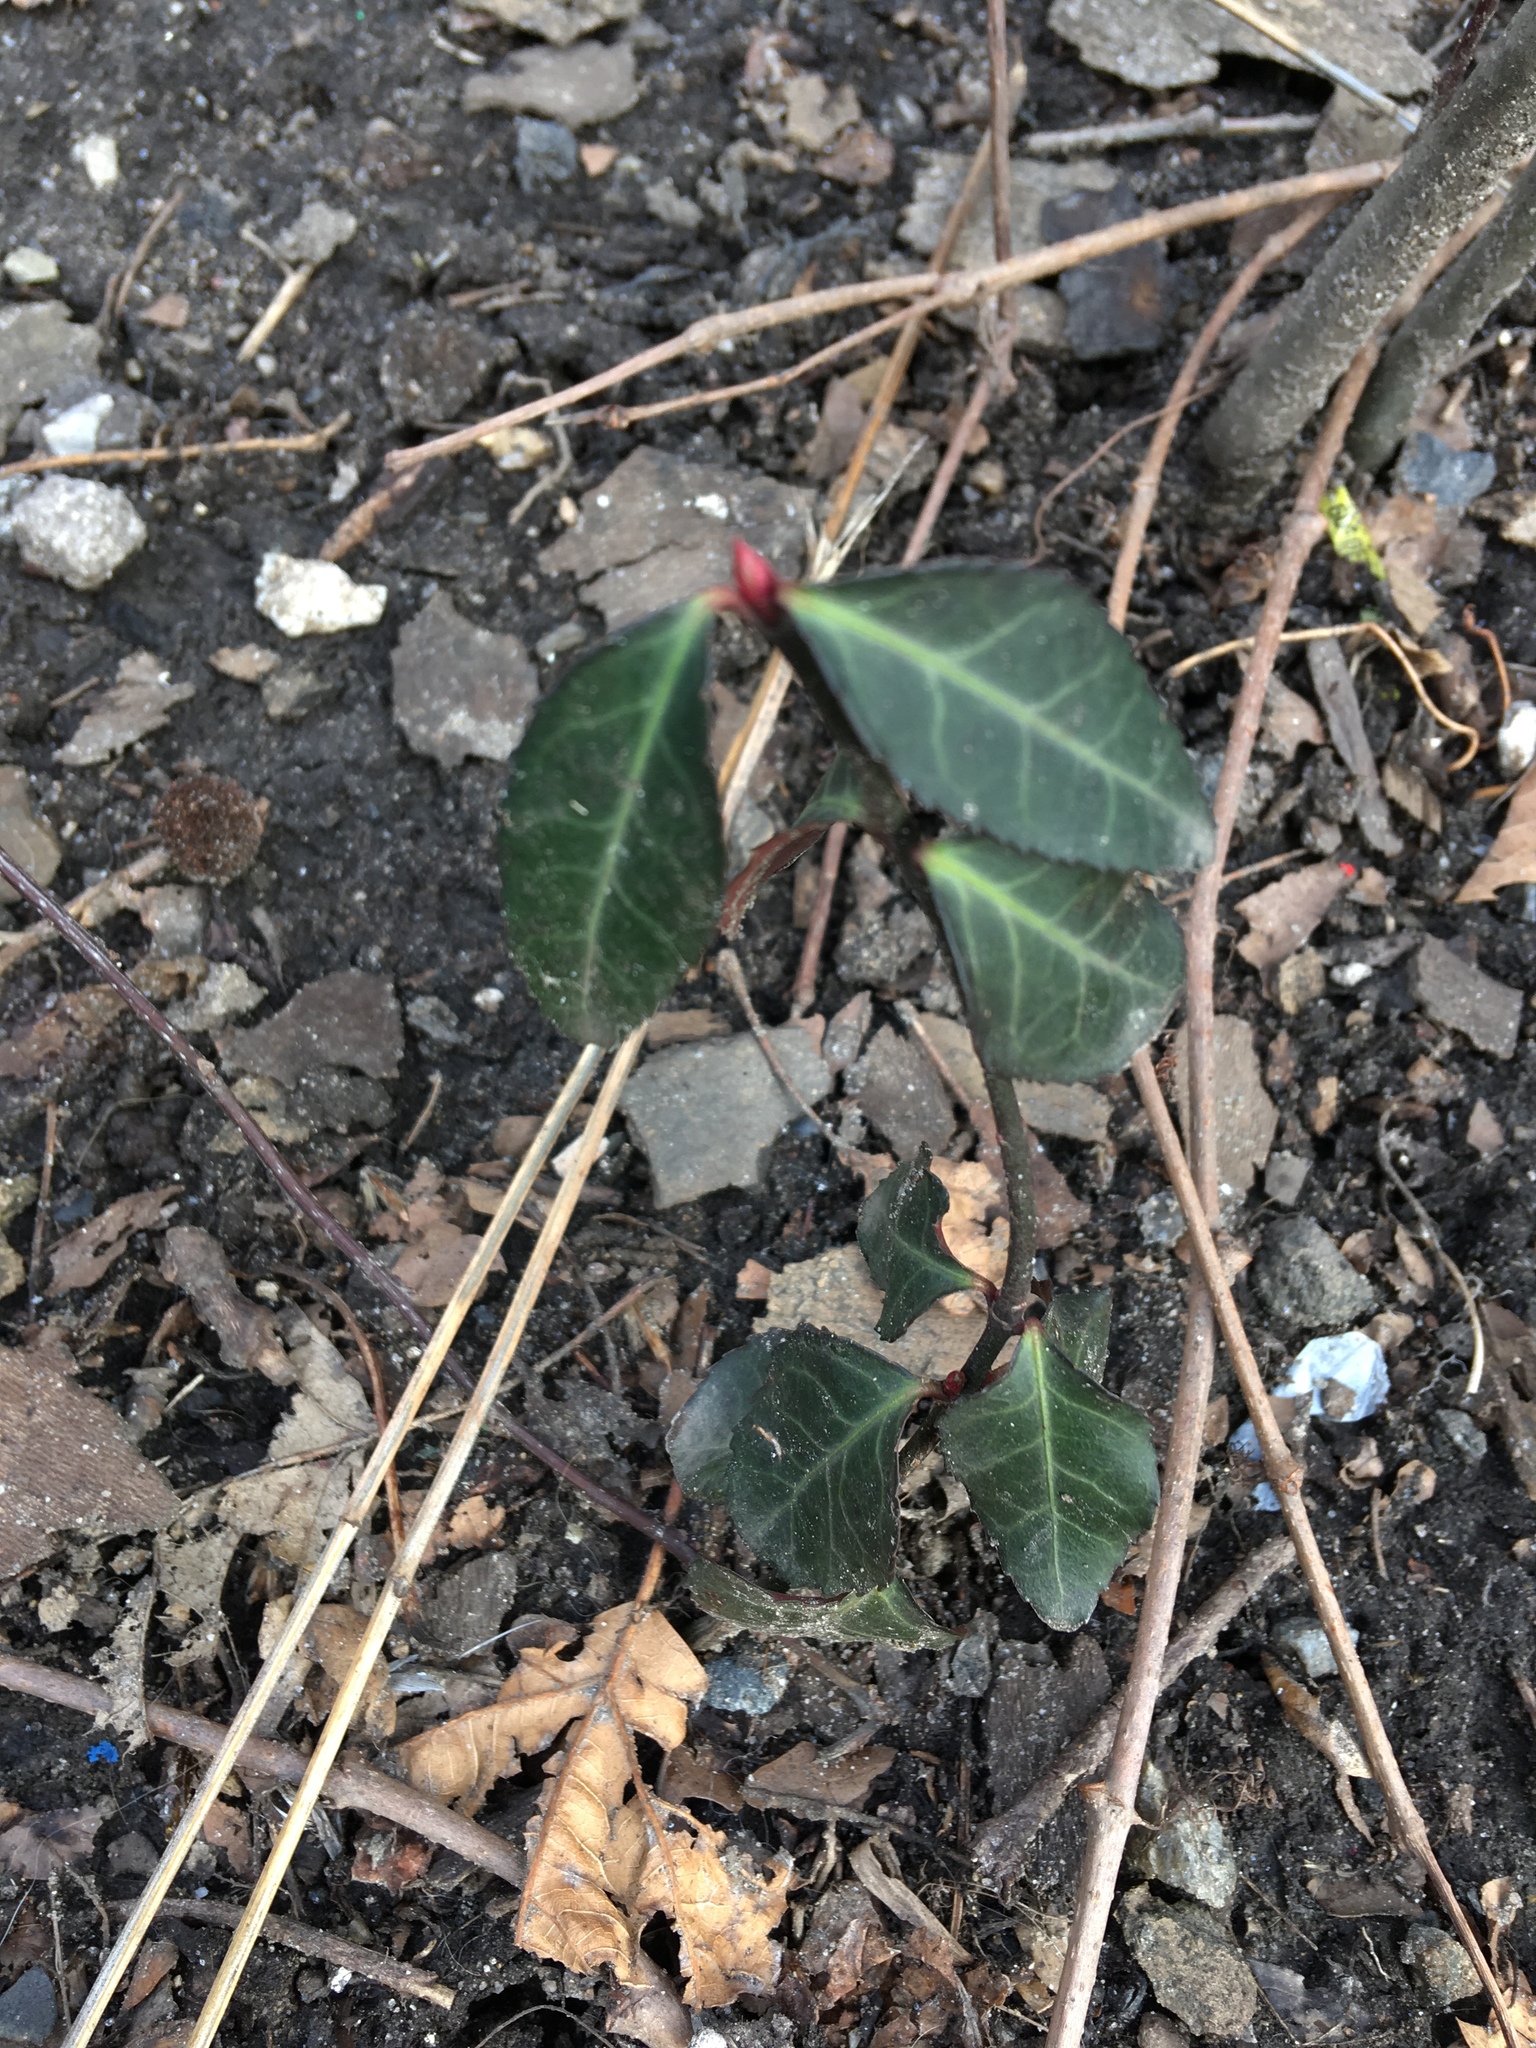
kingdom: Plantae
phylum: Tracheophyta
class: Magnoliopsida
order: Celastrales
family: Celastraceae
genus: Euonymus
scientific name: Euonymus fortunei
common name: Climbing euonymus
